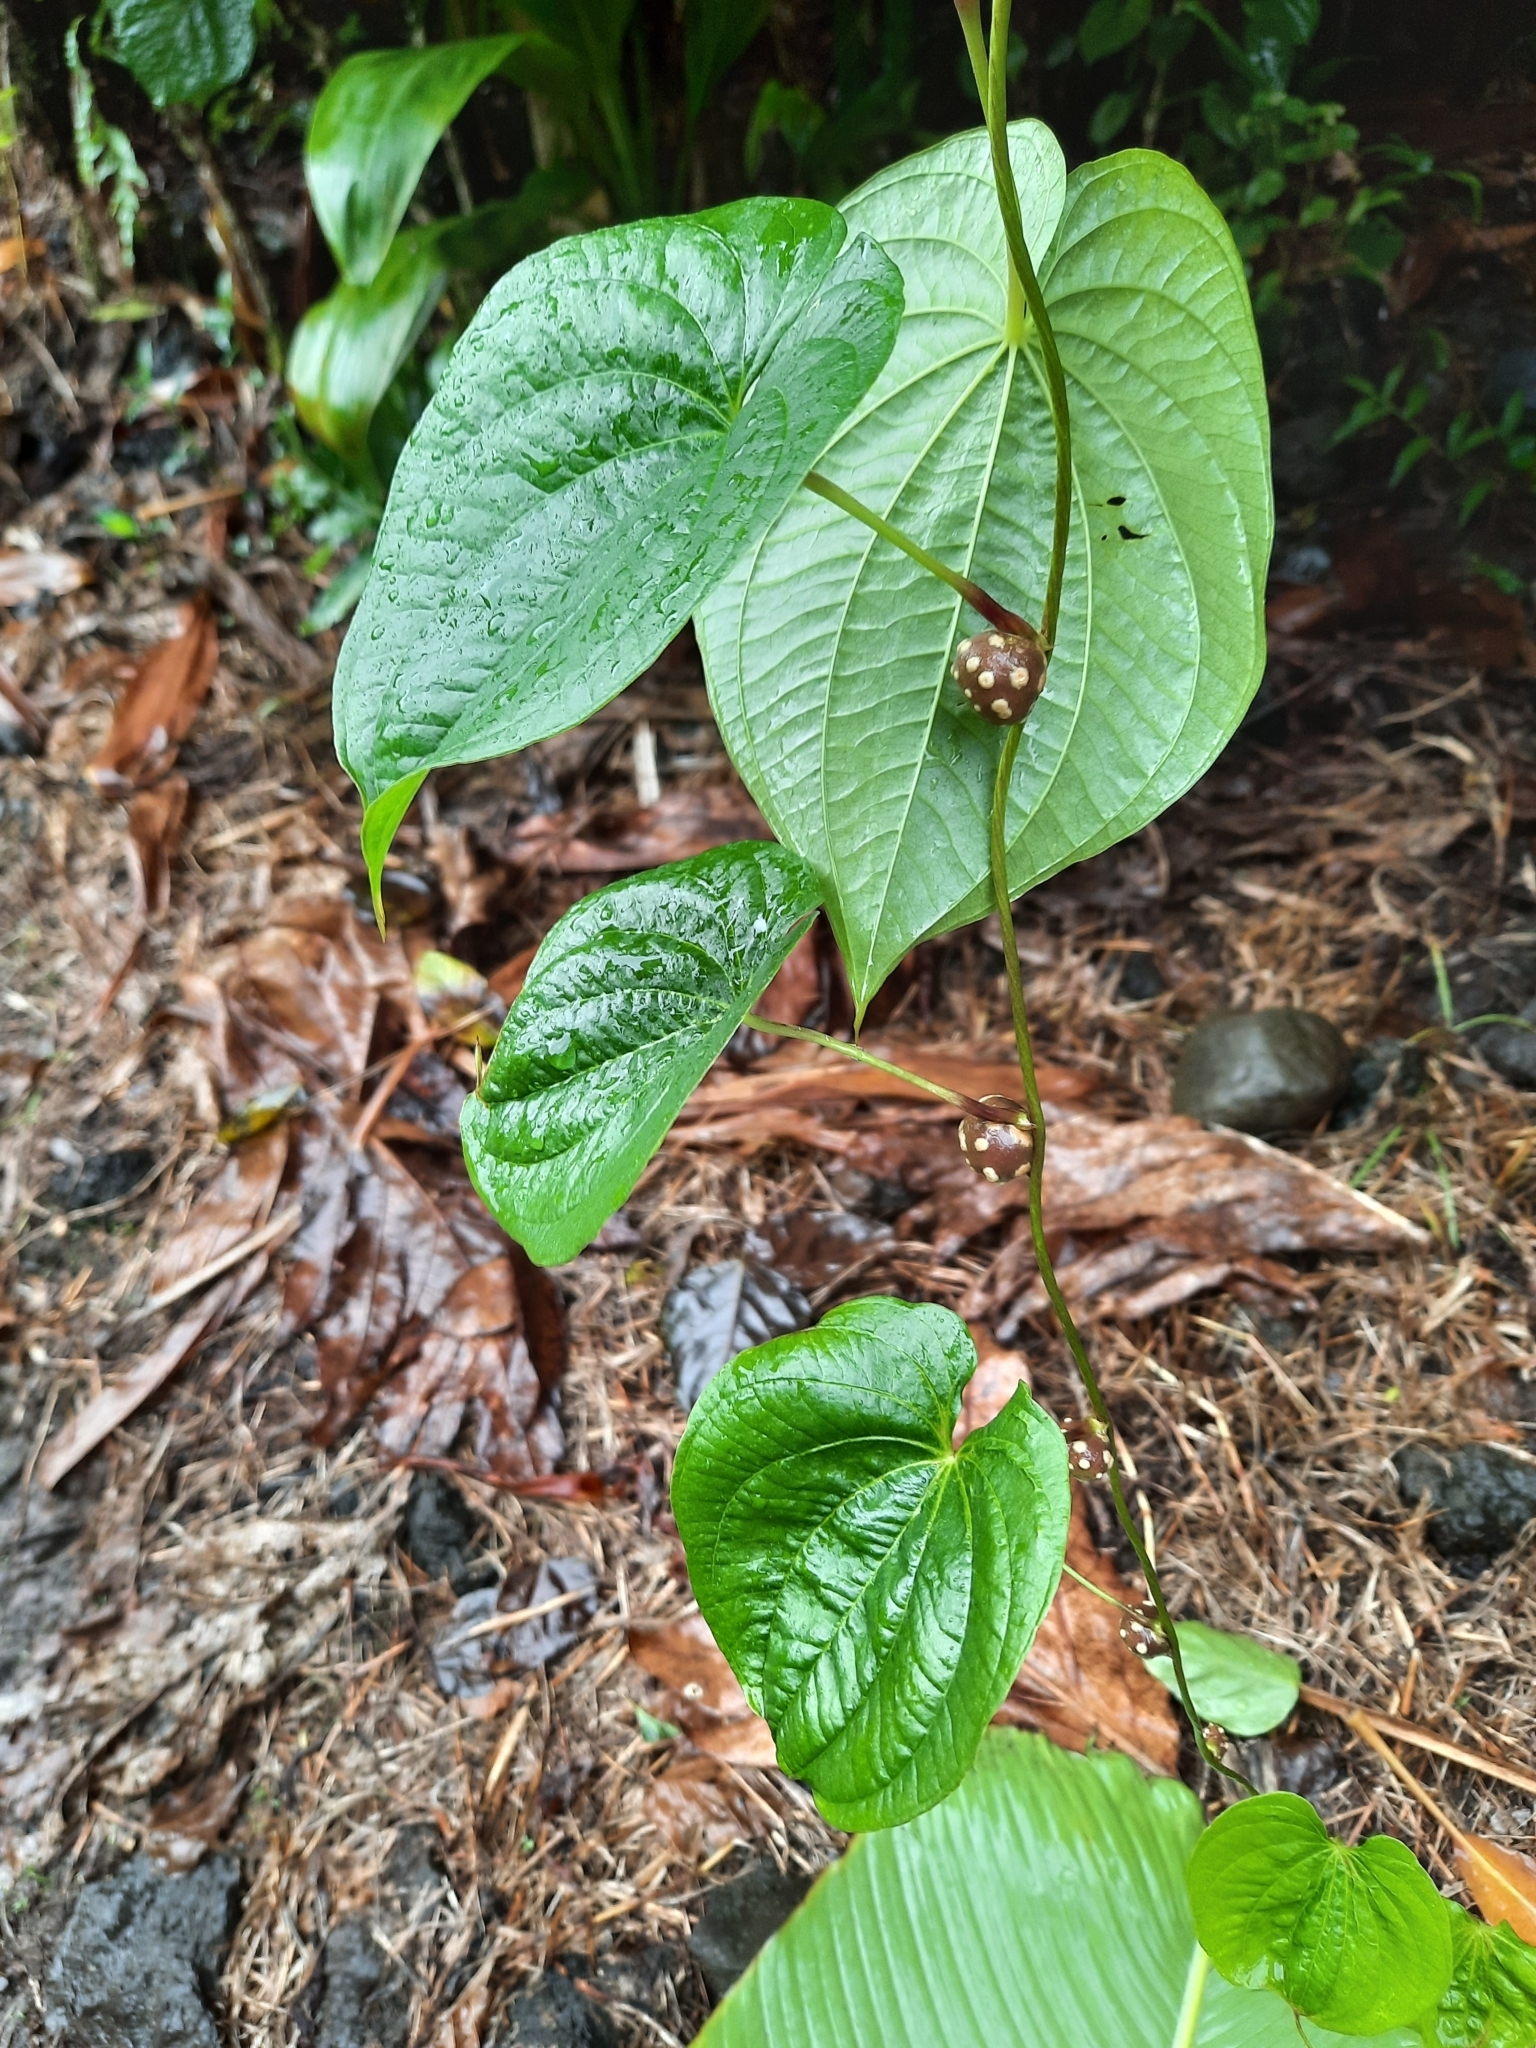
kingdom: Plantae
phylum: Tracheophyta
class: Liliopsida
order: Dioscoreales
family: Dioscoreaceae
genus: Dioscorea
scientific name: Dioscorea bulbifera
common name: Air yam
